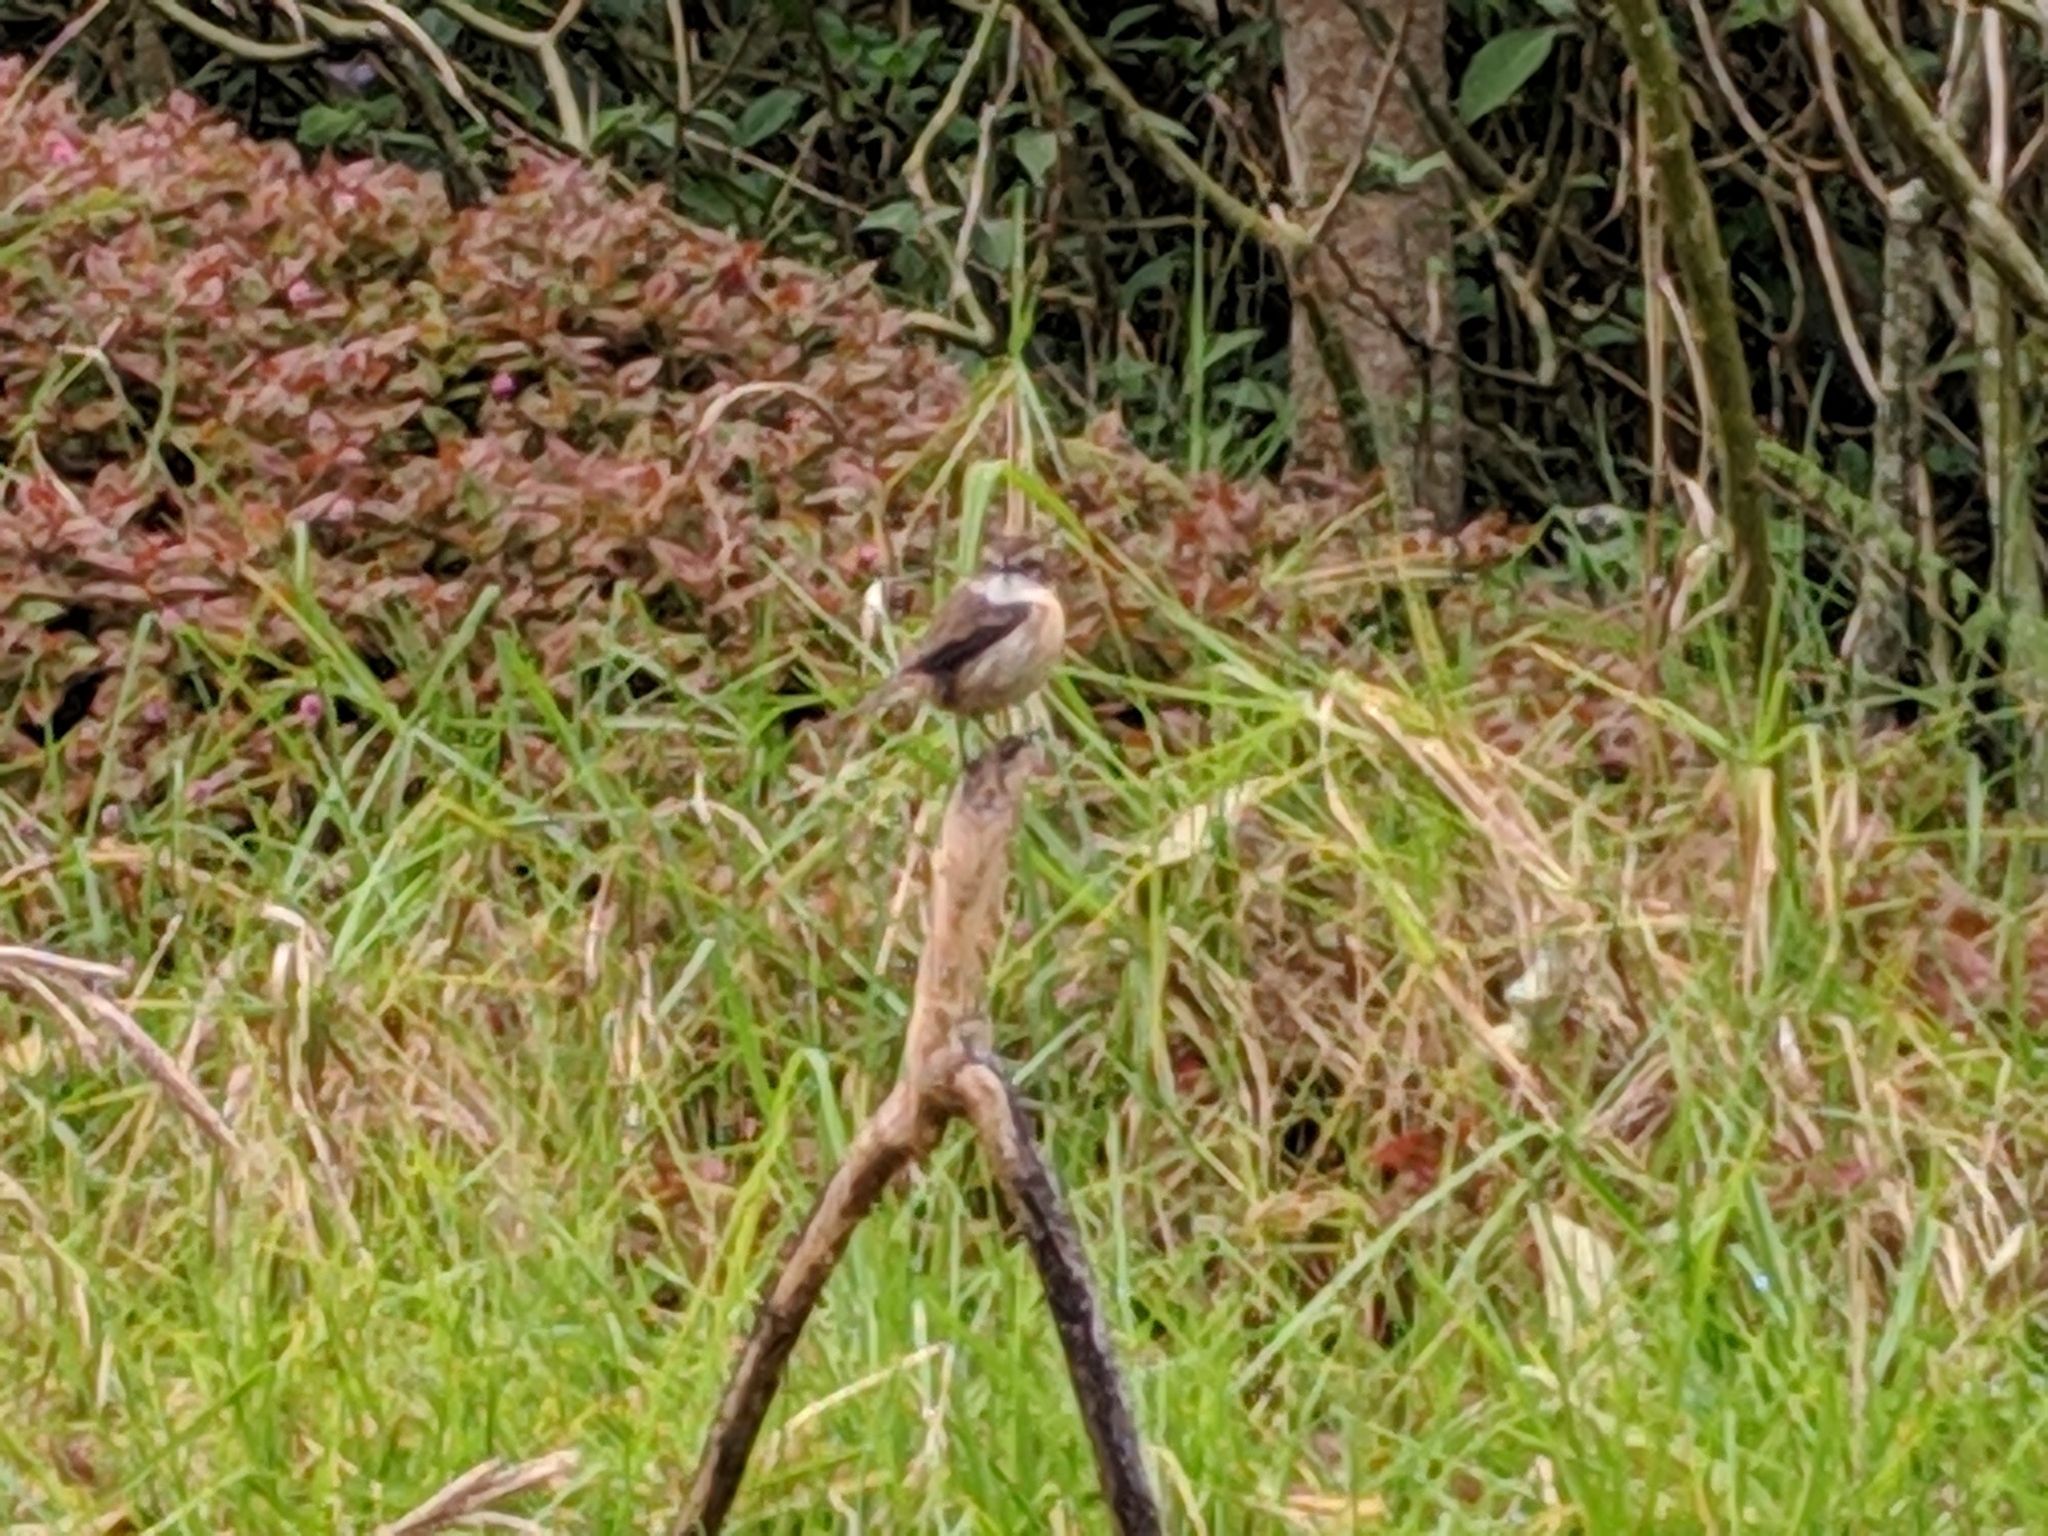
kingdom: Animalia
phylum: Chordata
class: Aves
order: Passeriformes
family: Muscicapidae
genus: Saxicola
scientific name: Saxicola tectes
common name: Reunion stonechat
